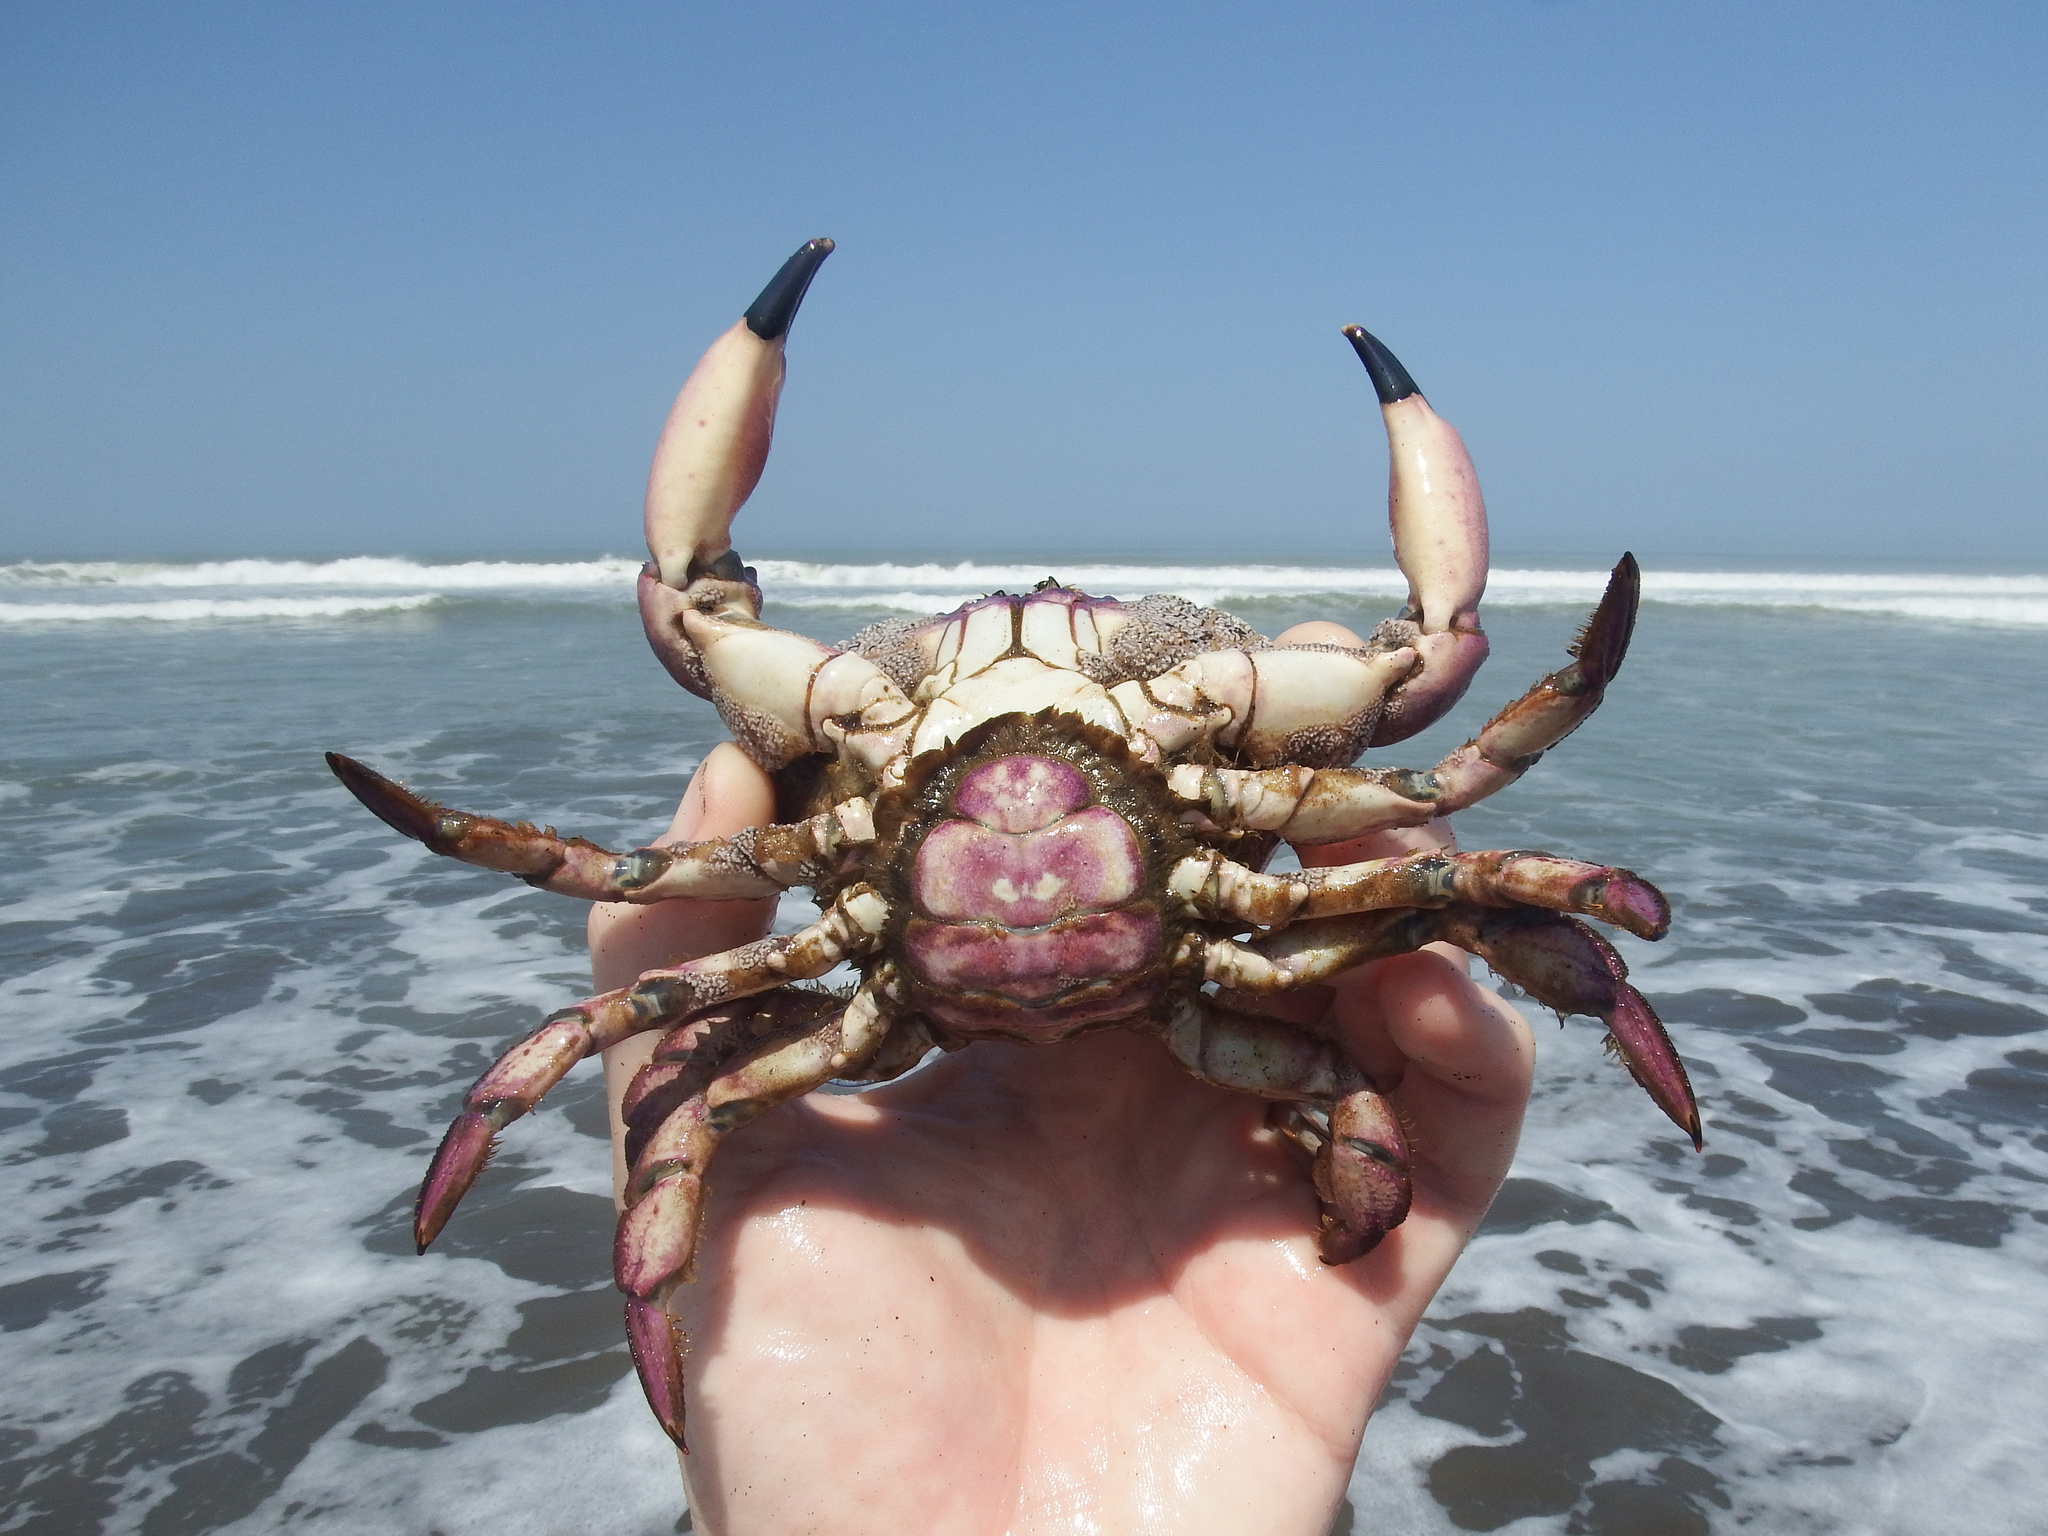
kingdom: Animalia
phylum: Arthropoda
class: Malacostraca
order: Decapoda
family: Platyxanthidae
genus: Platyxanthus
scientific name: Platyxanthus orbignyi
